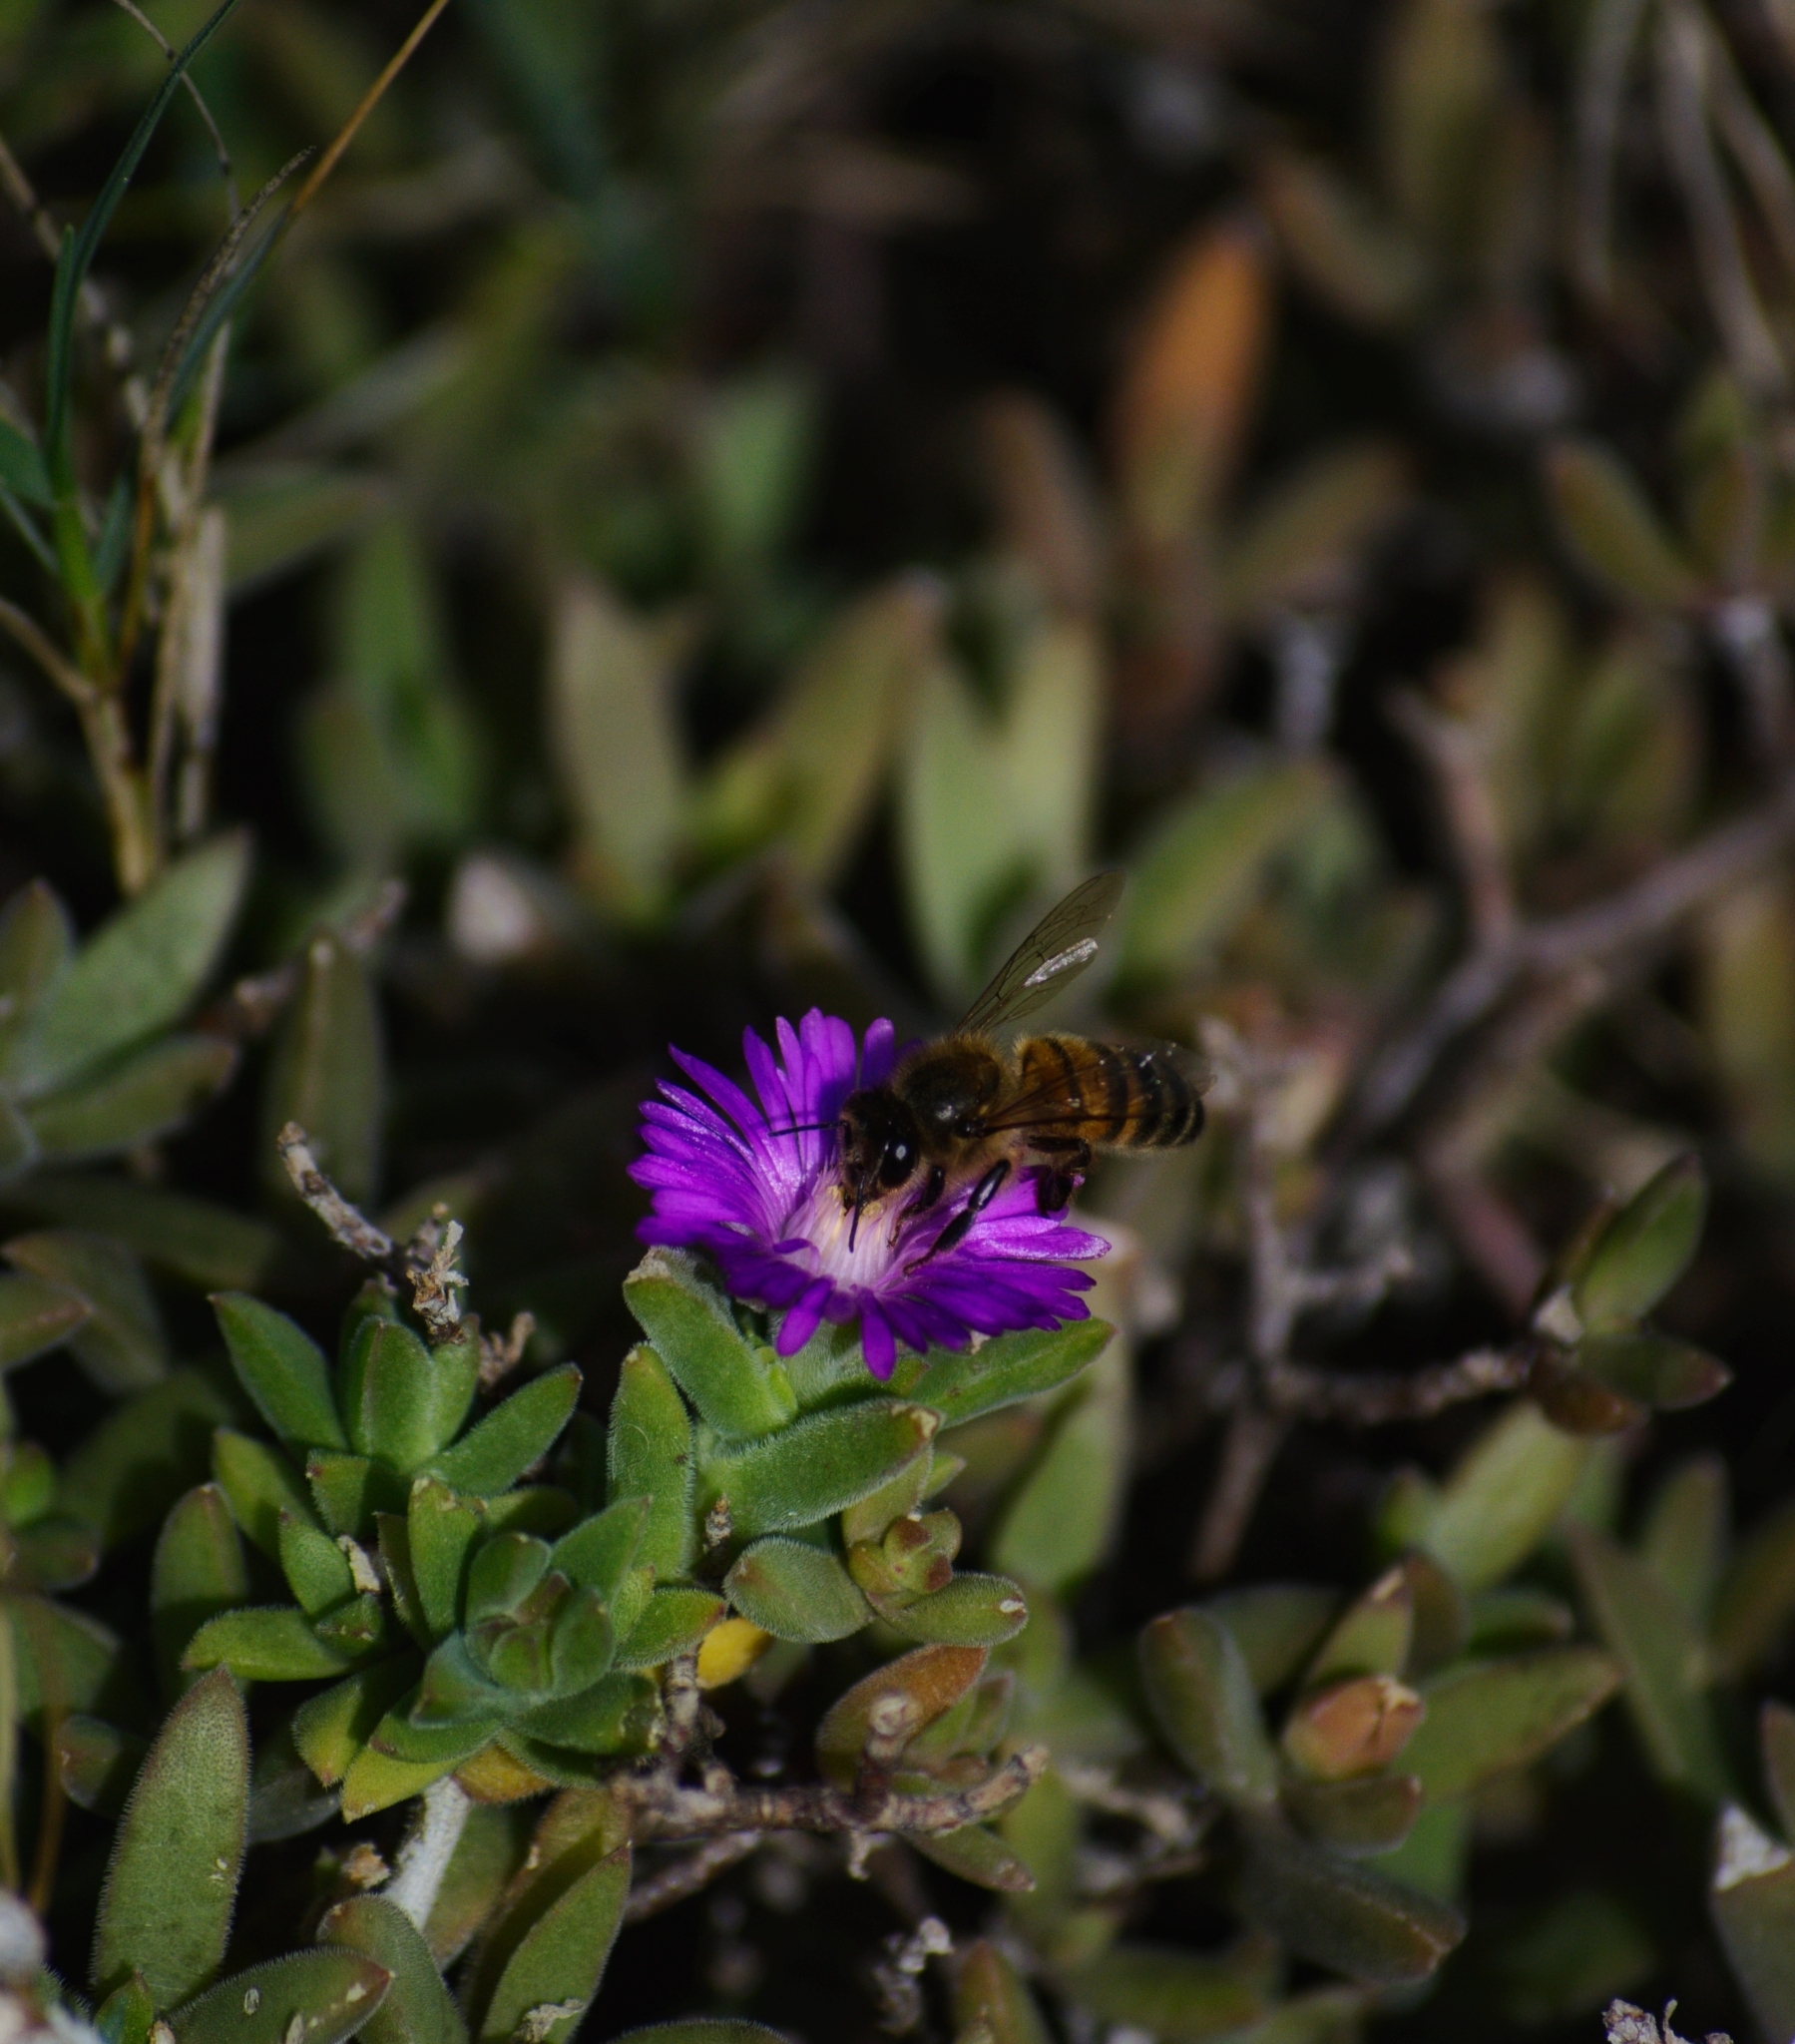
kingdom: Animalia
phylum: Arthropoda
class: Insecta
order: Hymenoptera
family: Apidae
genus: Apis
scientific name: Apis mellifera
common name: Honey bee
